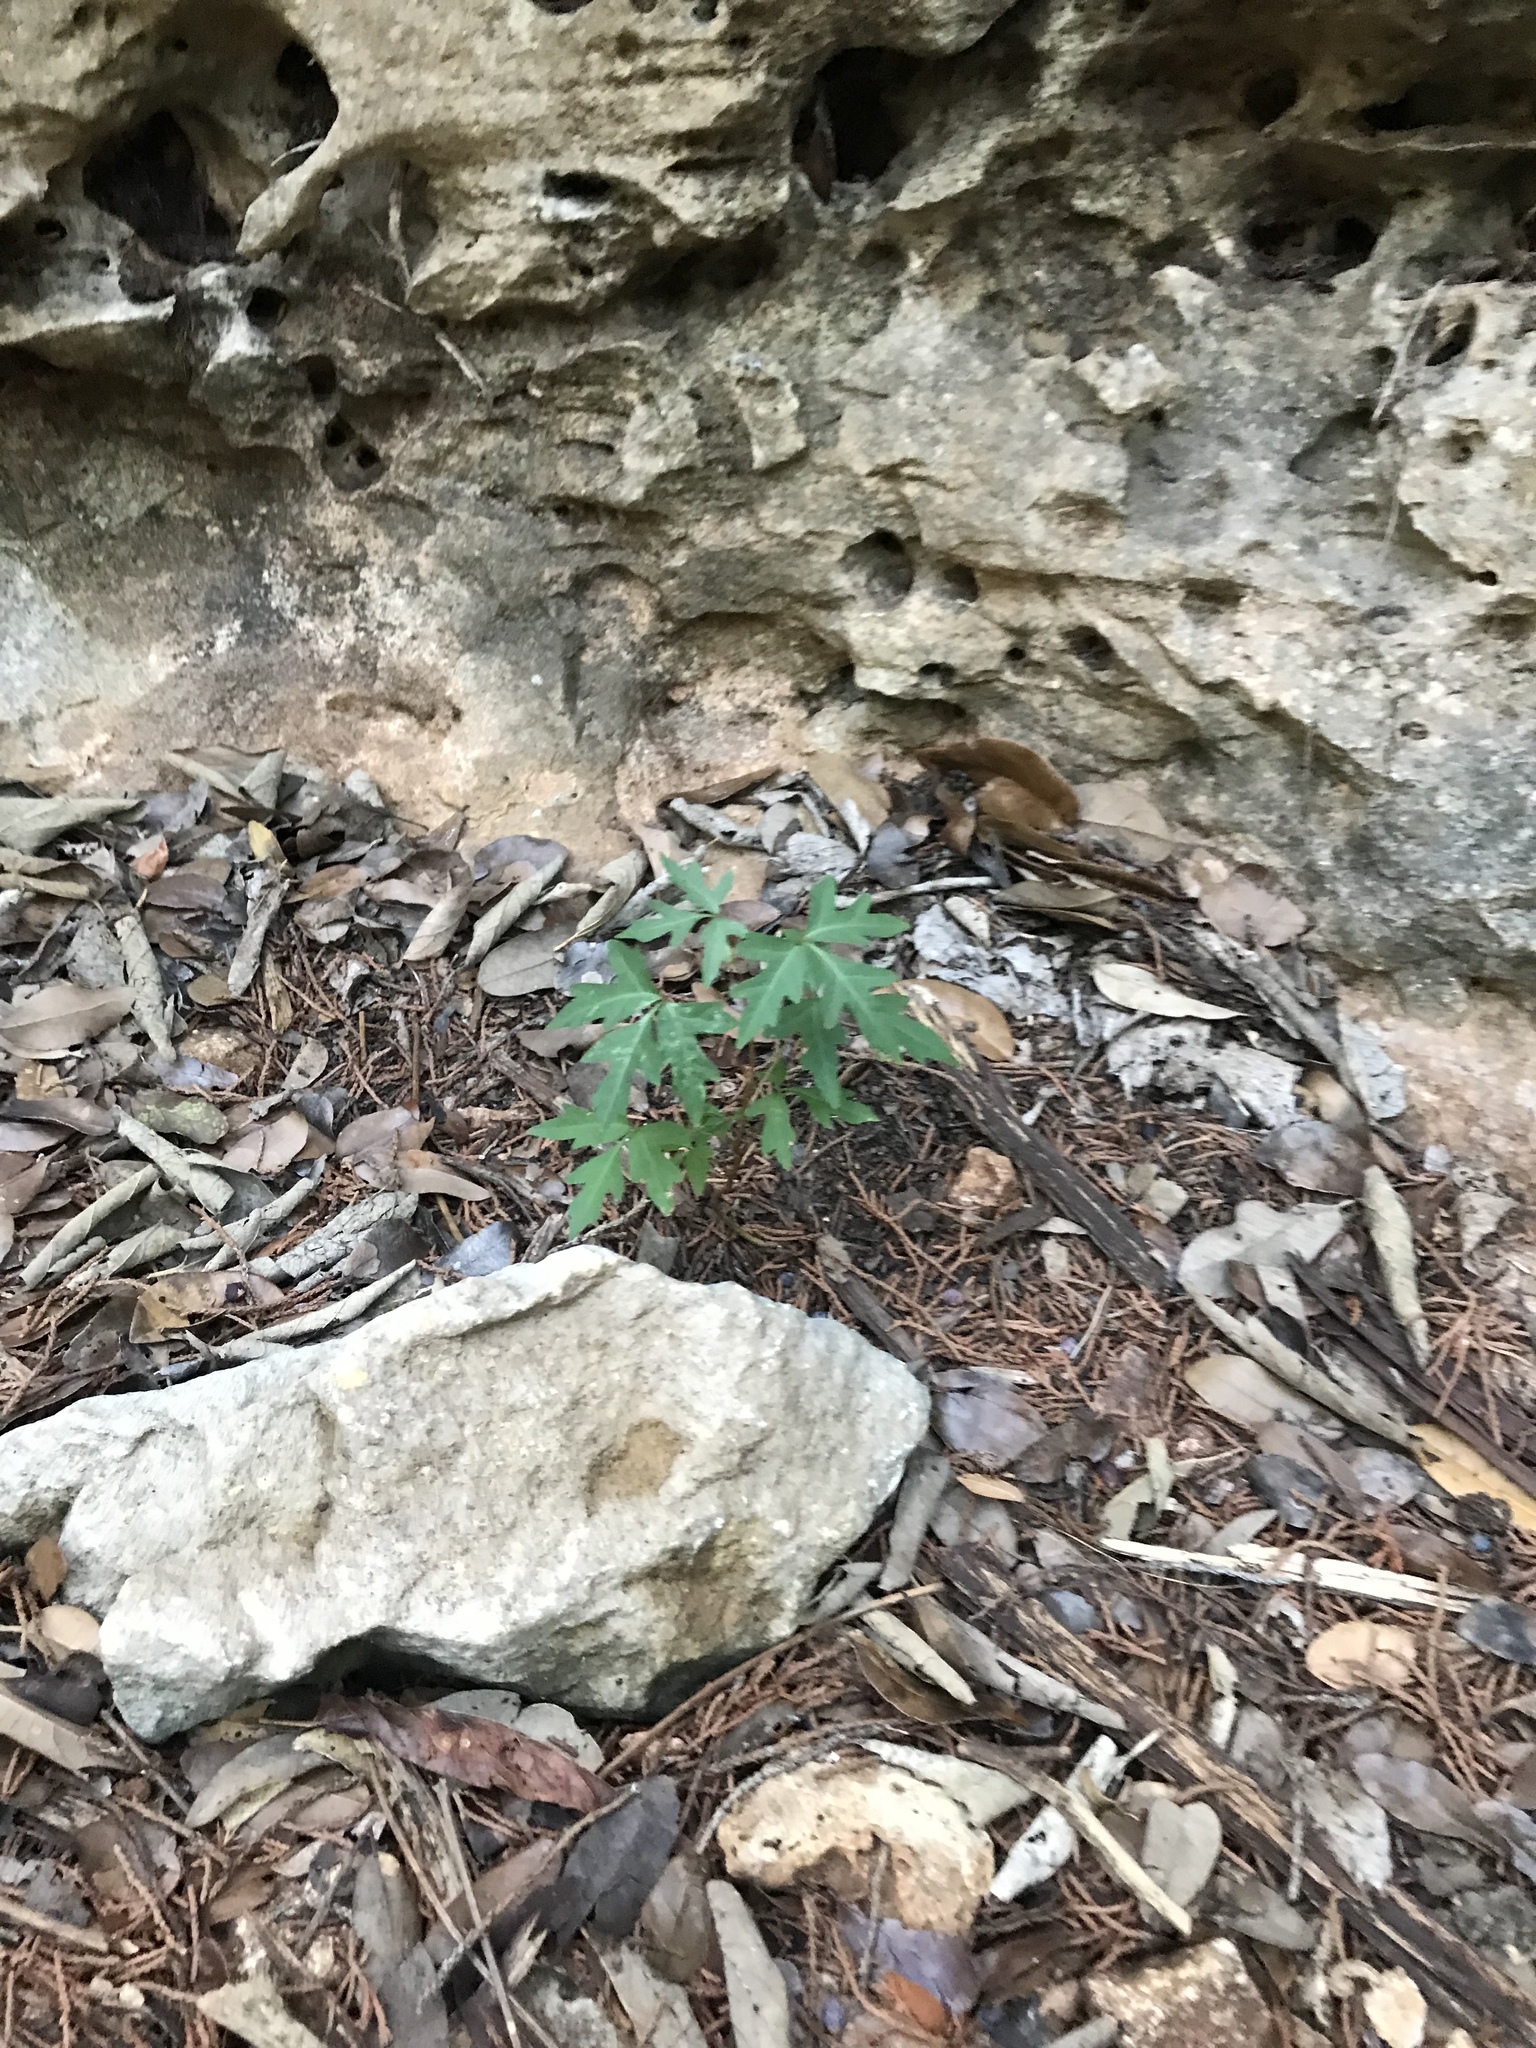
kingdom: Plantae
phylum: Tracheophyta
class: Magnoliopsida
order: Sapindales
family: Anacardiaceae
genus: Toxicodendron
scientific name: Toxicodendron radicans
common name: Poison ivy
